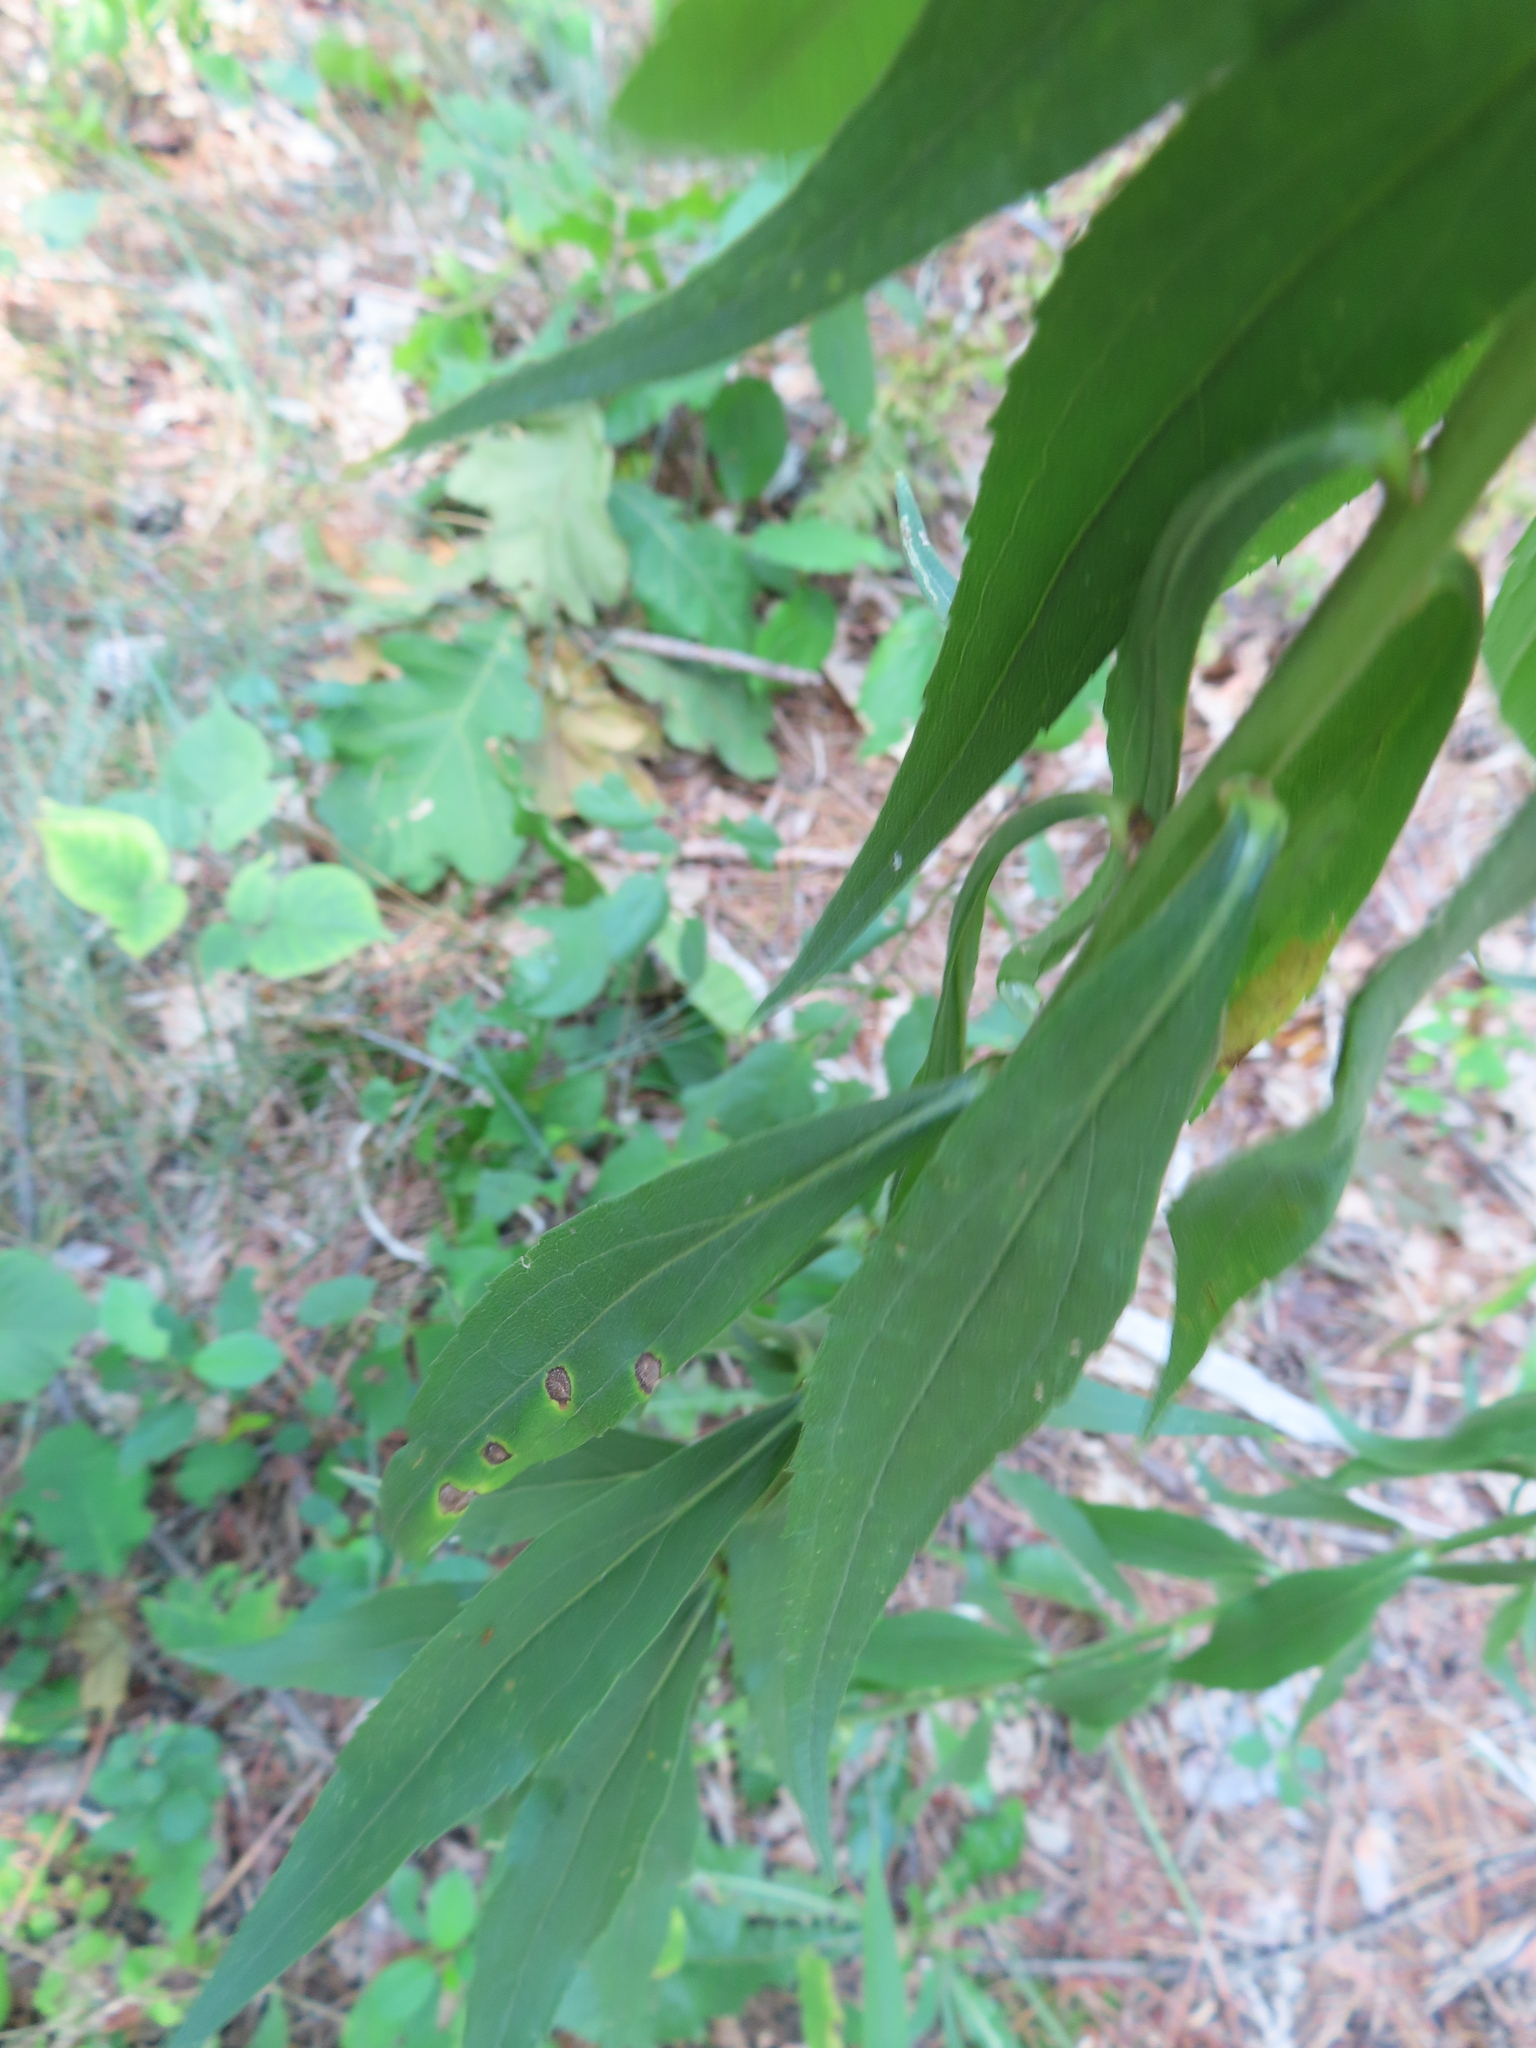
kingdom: Animalia
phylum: Arthropoda
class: Insecta
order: Diptera
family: Cecidomyiidae
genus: Asteromyia
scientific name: Asteromyia carbonifera
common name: Carbonifera goldenrod gall midge
